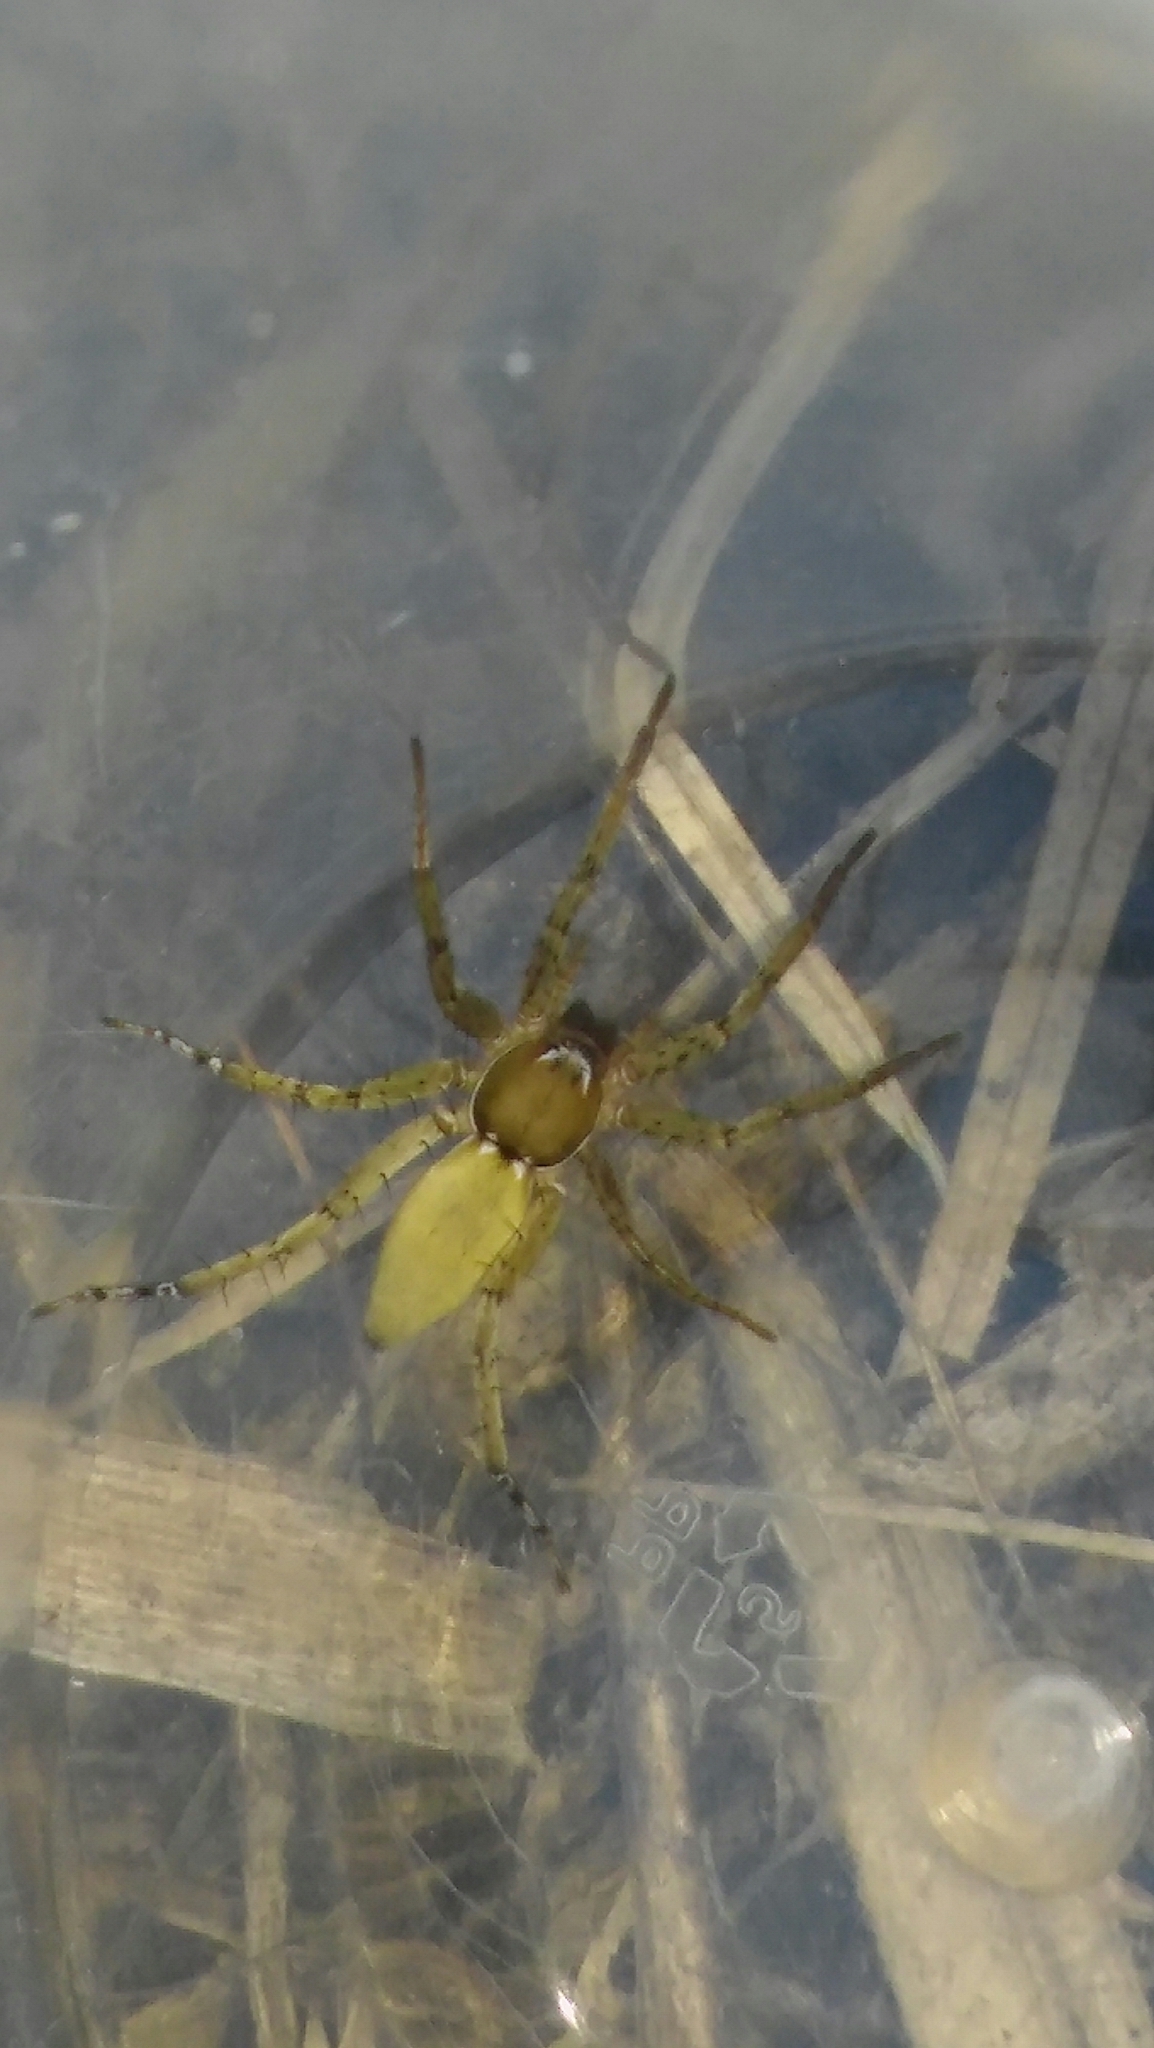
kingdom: Animalia
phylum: Arthropoda
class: Arachnida
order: Araneae
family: Anyphaenidae
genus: Arachosia
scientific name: Arachosia proseni
